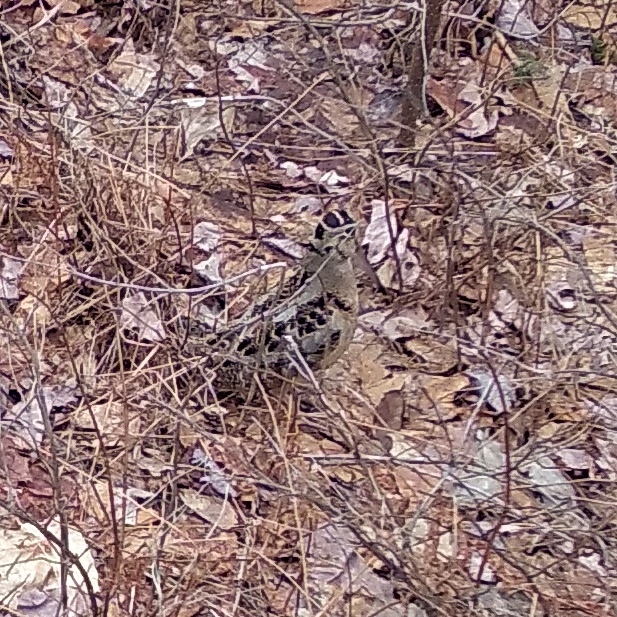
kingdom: Animalia
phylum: Chordata
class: Aves
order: Charadriiformes
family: Scolopacidae
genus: Scolopax
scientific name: Scolopax minor
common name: American woodcock
